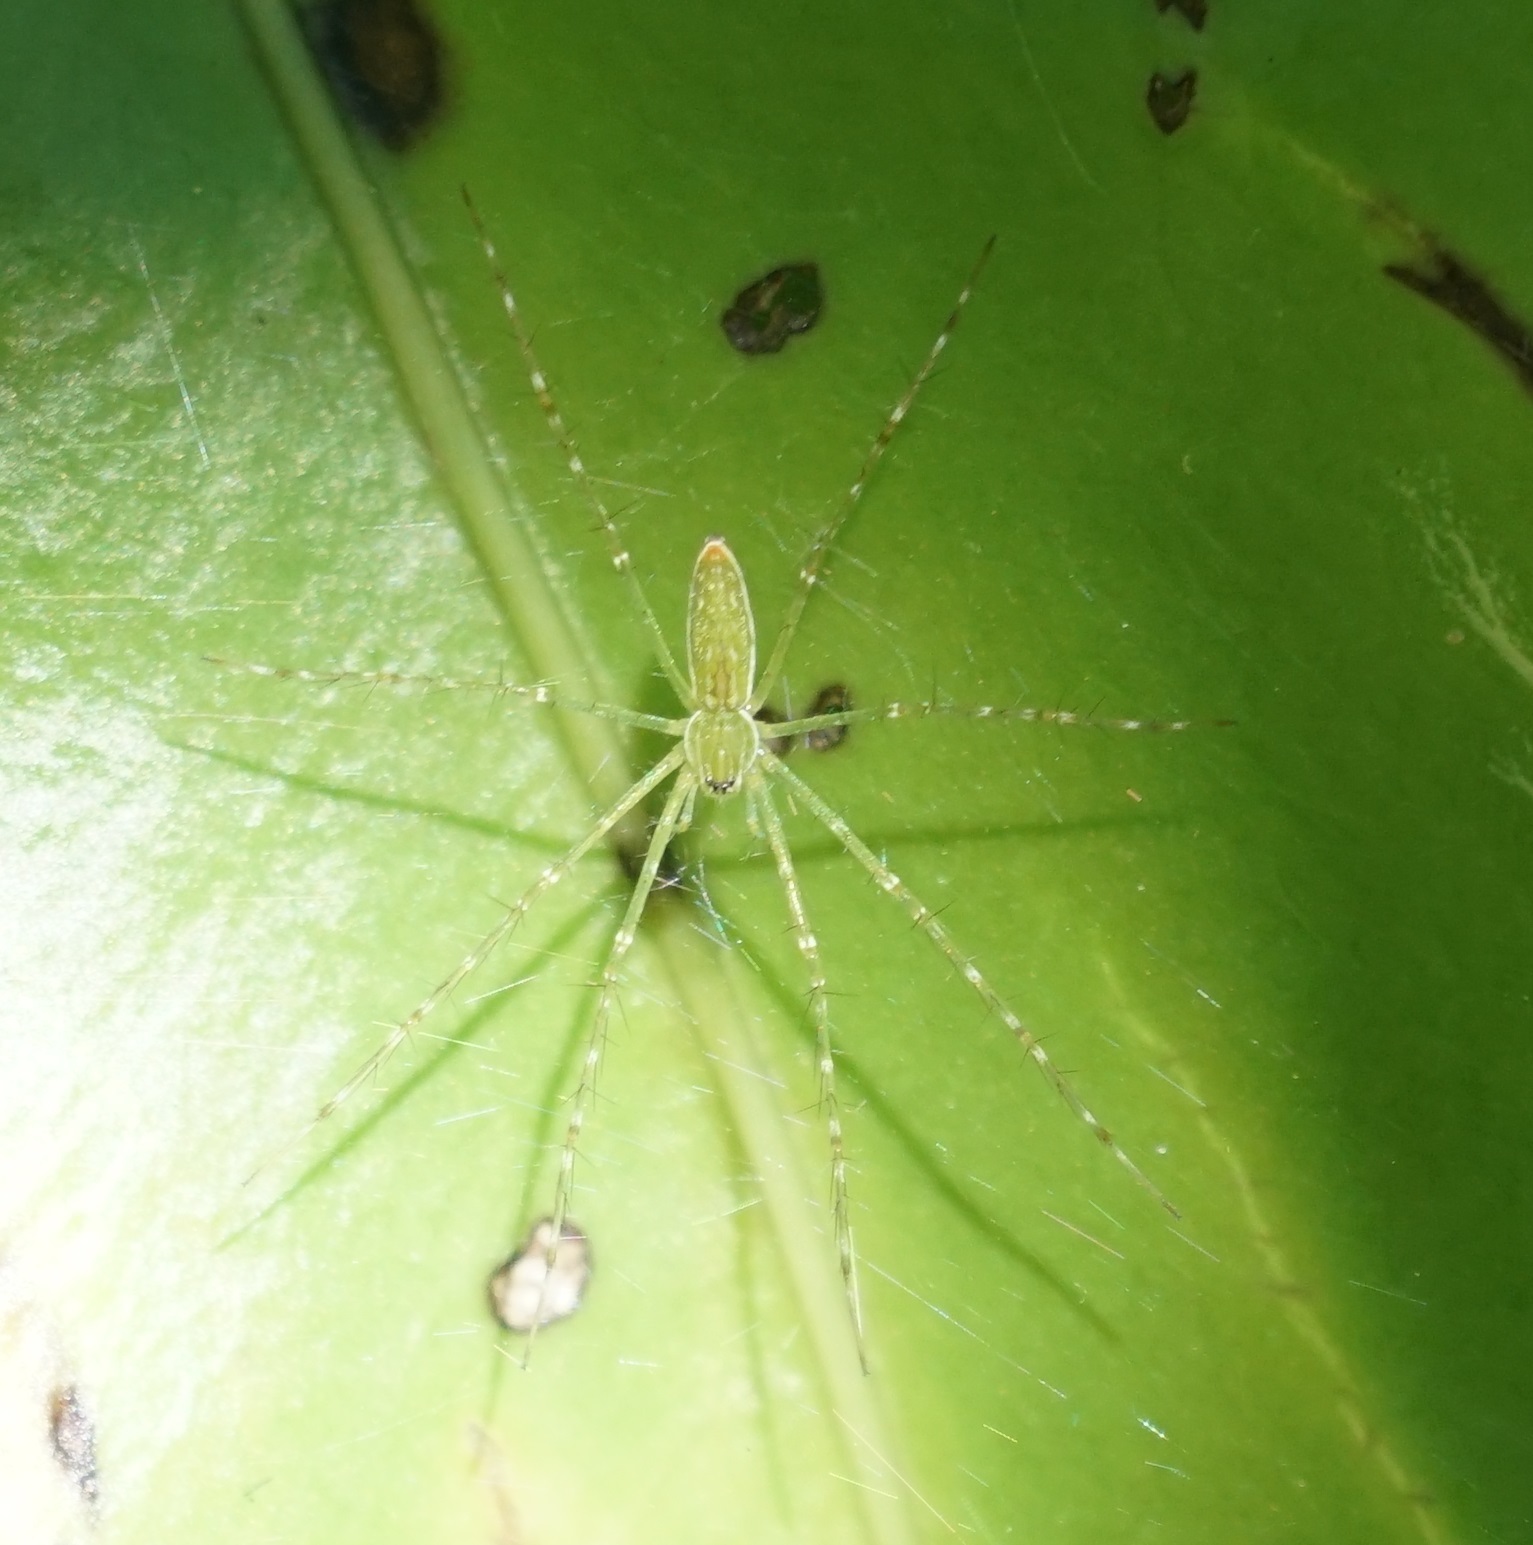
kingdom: Animalia
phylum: Arthropoda
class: Arachnida
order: Araneae
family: Pisauridae
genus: Hygropoda
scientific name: Hygropoda lineata
